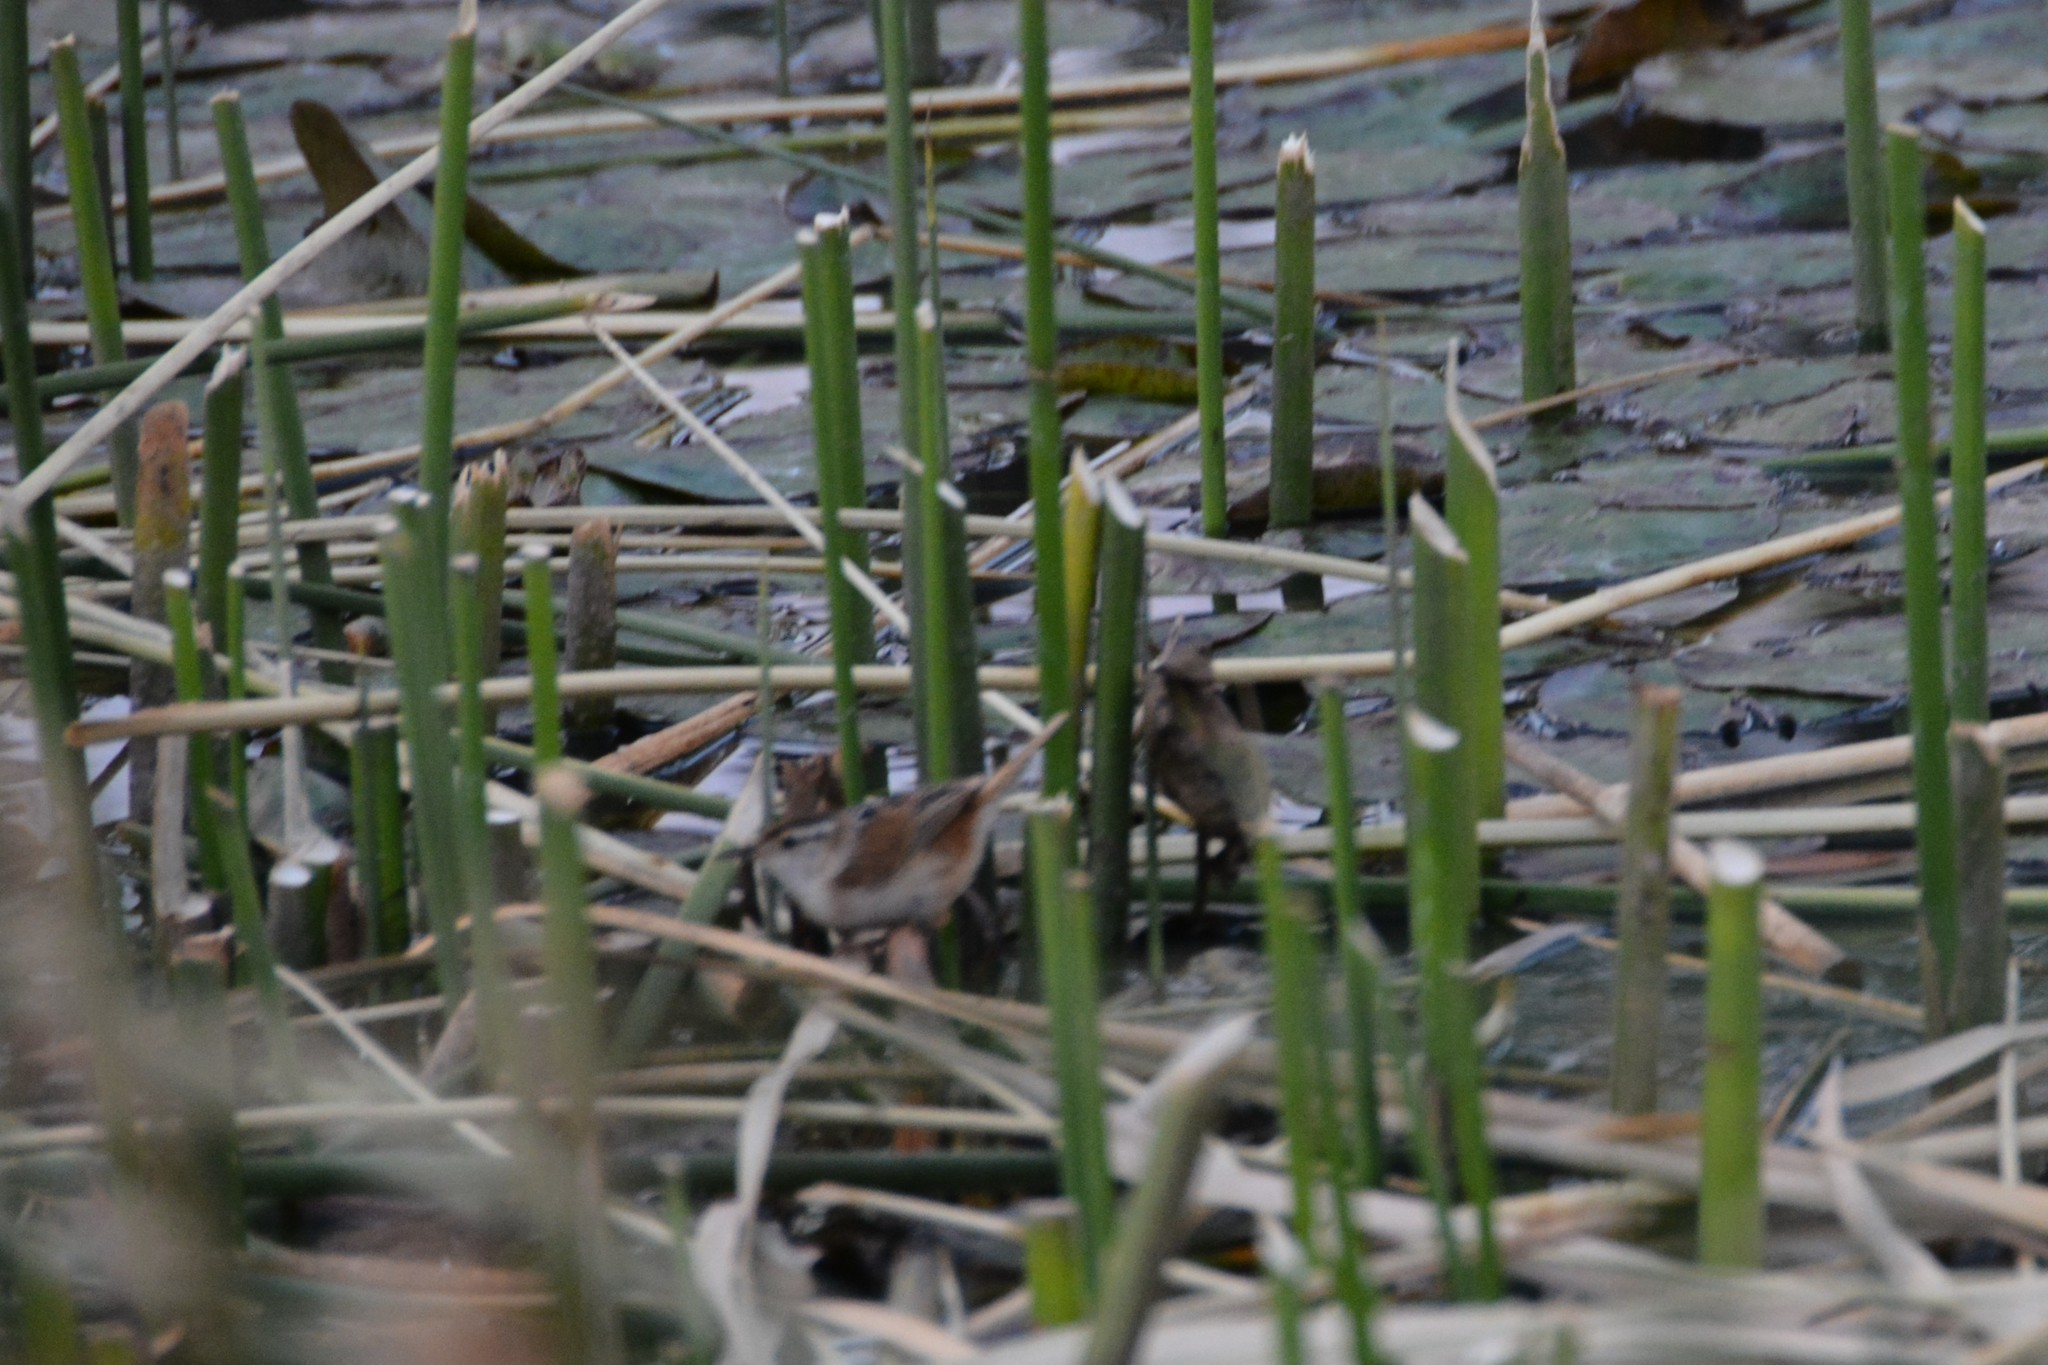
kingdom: Animalia
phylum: Chordata
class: Aves
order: Passeriformes
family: Troglodytidae
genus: Cistothorus
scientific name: Cistothorus palustris
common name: Marsh wren
